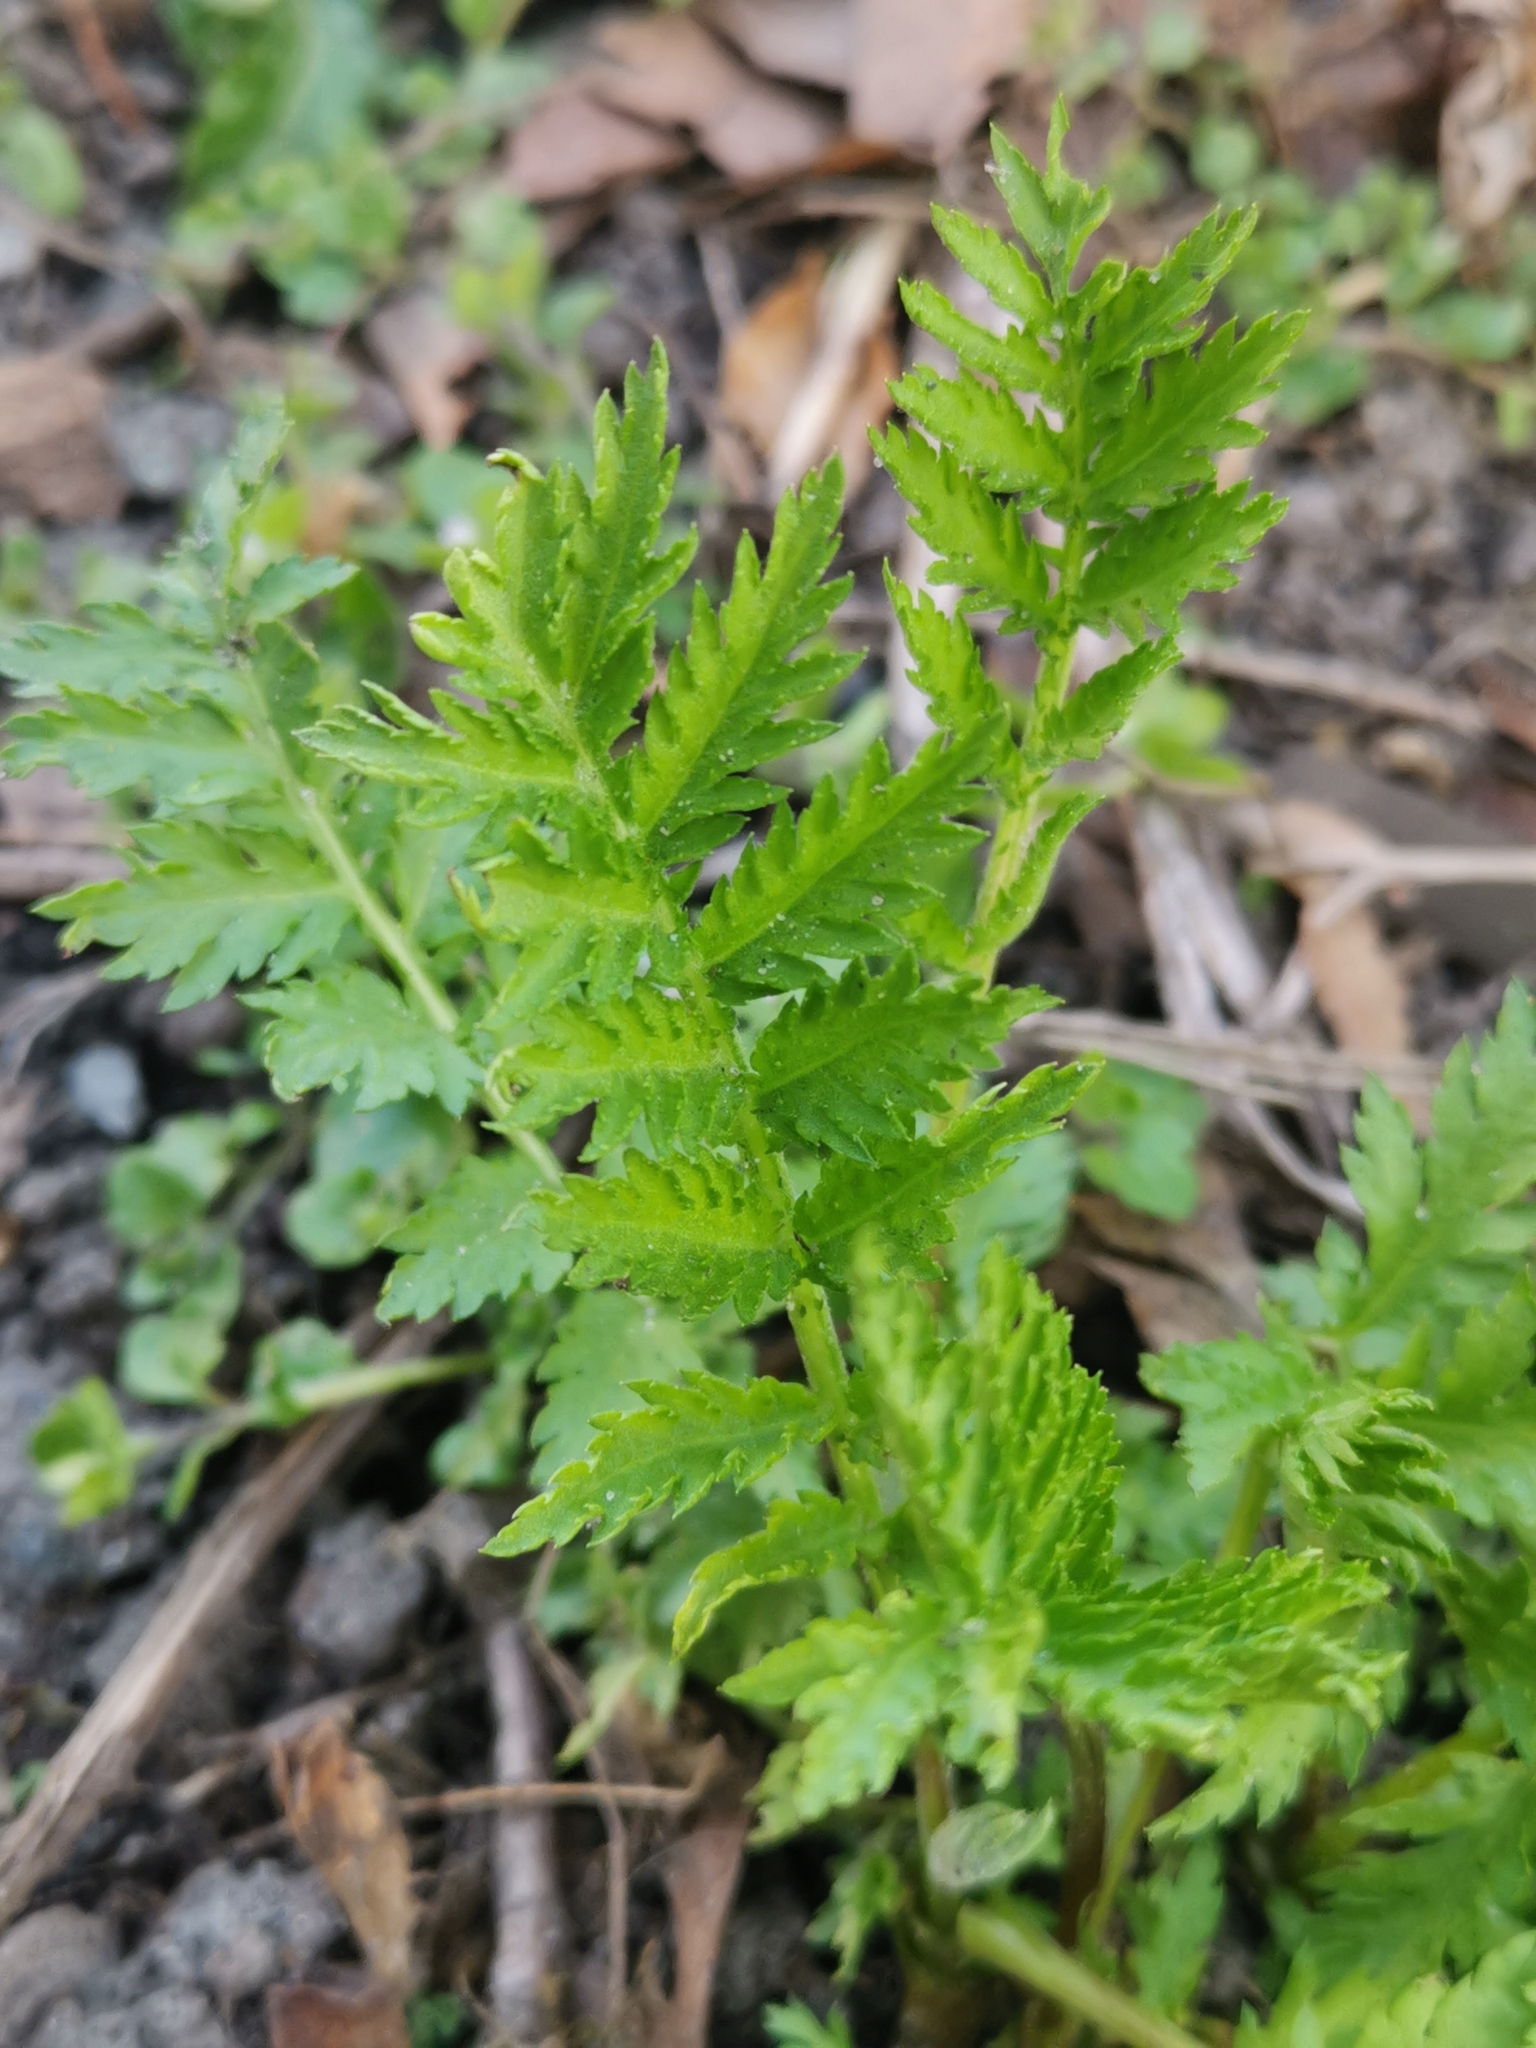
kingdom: Plantae
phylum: Tracheophyta
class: Magnoliopsida
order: Asterales
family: Asteraceae
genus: Tanacetum
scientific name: Tanacetum vulgare
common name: Common tansy
